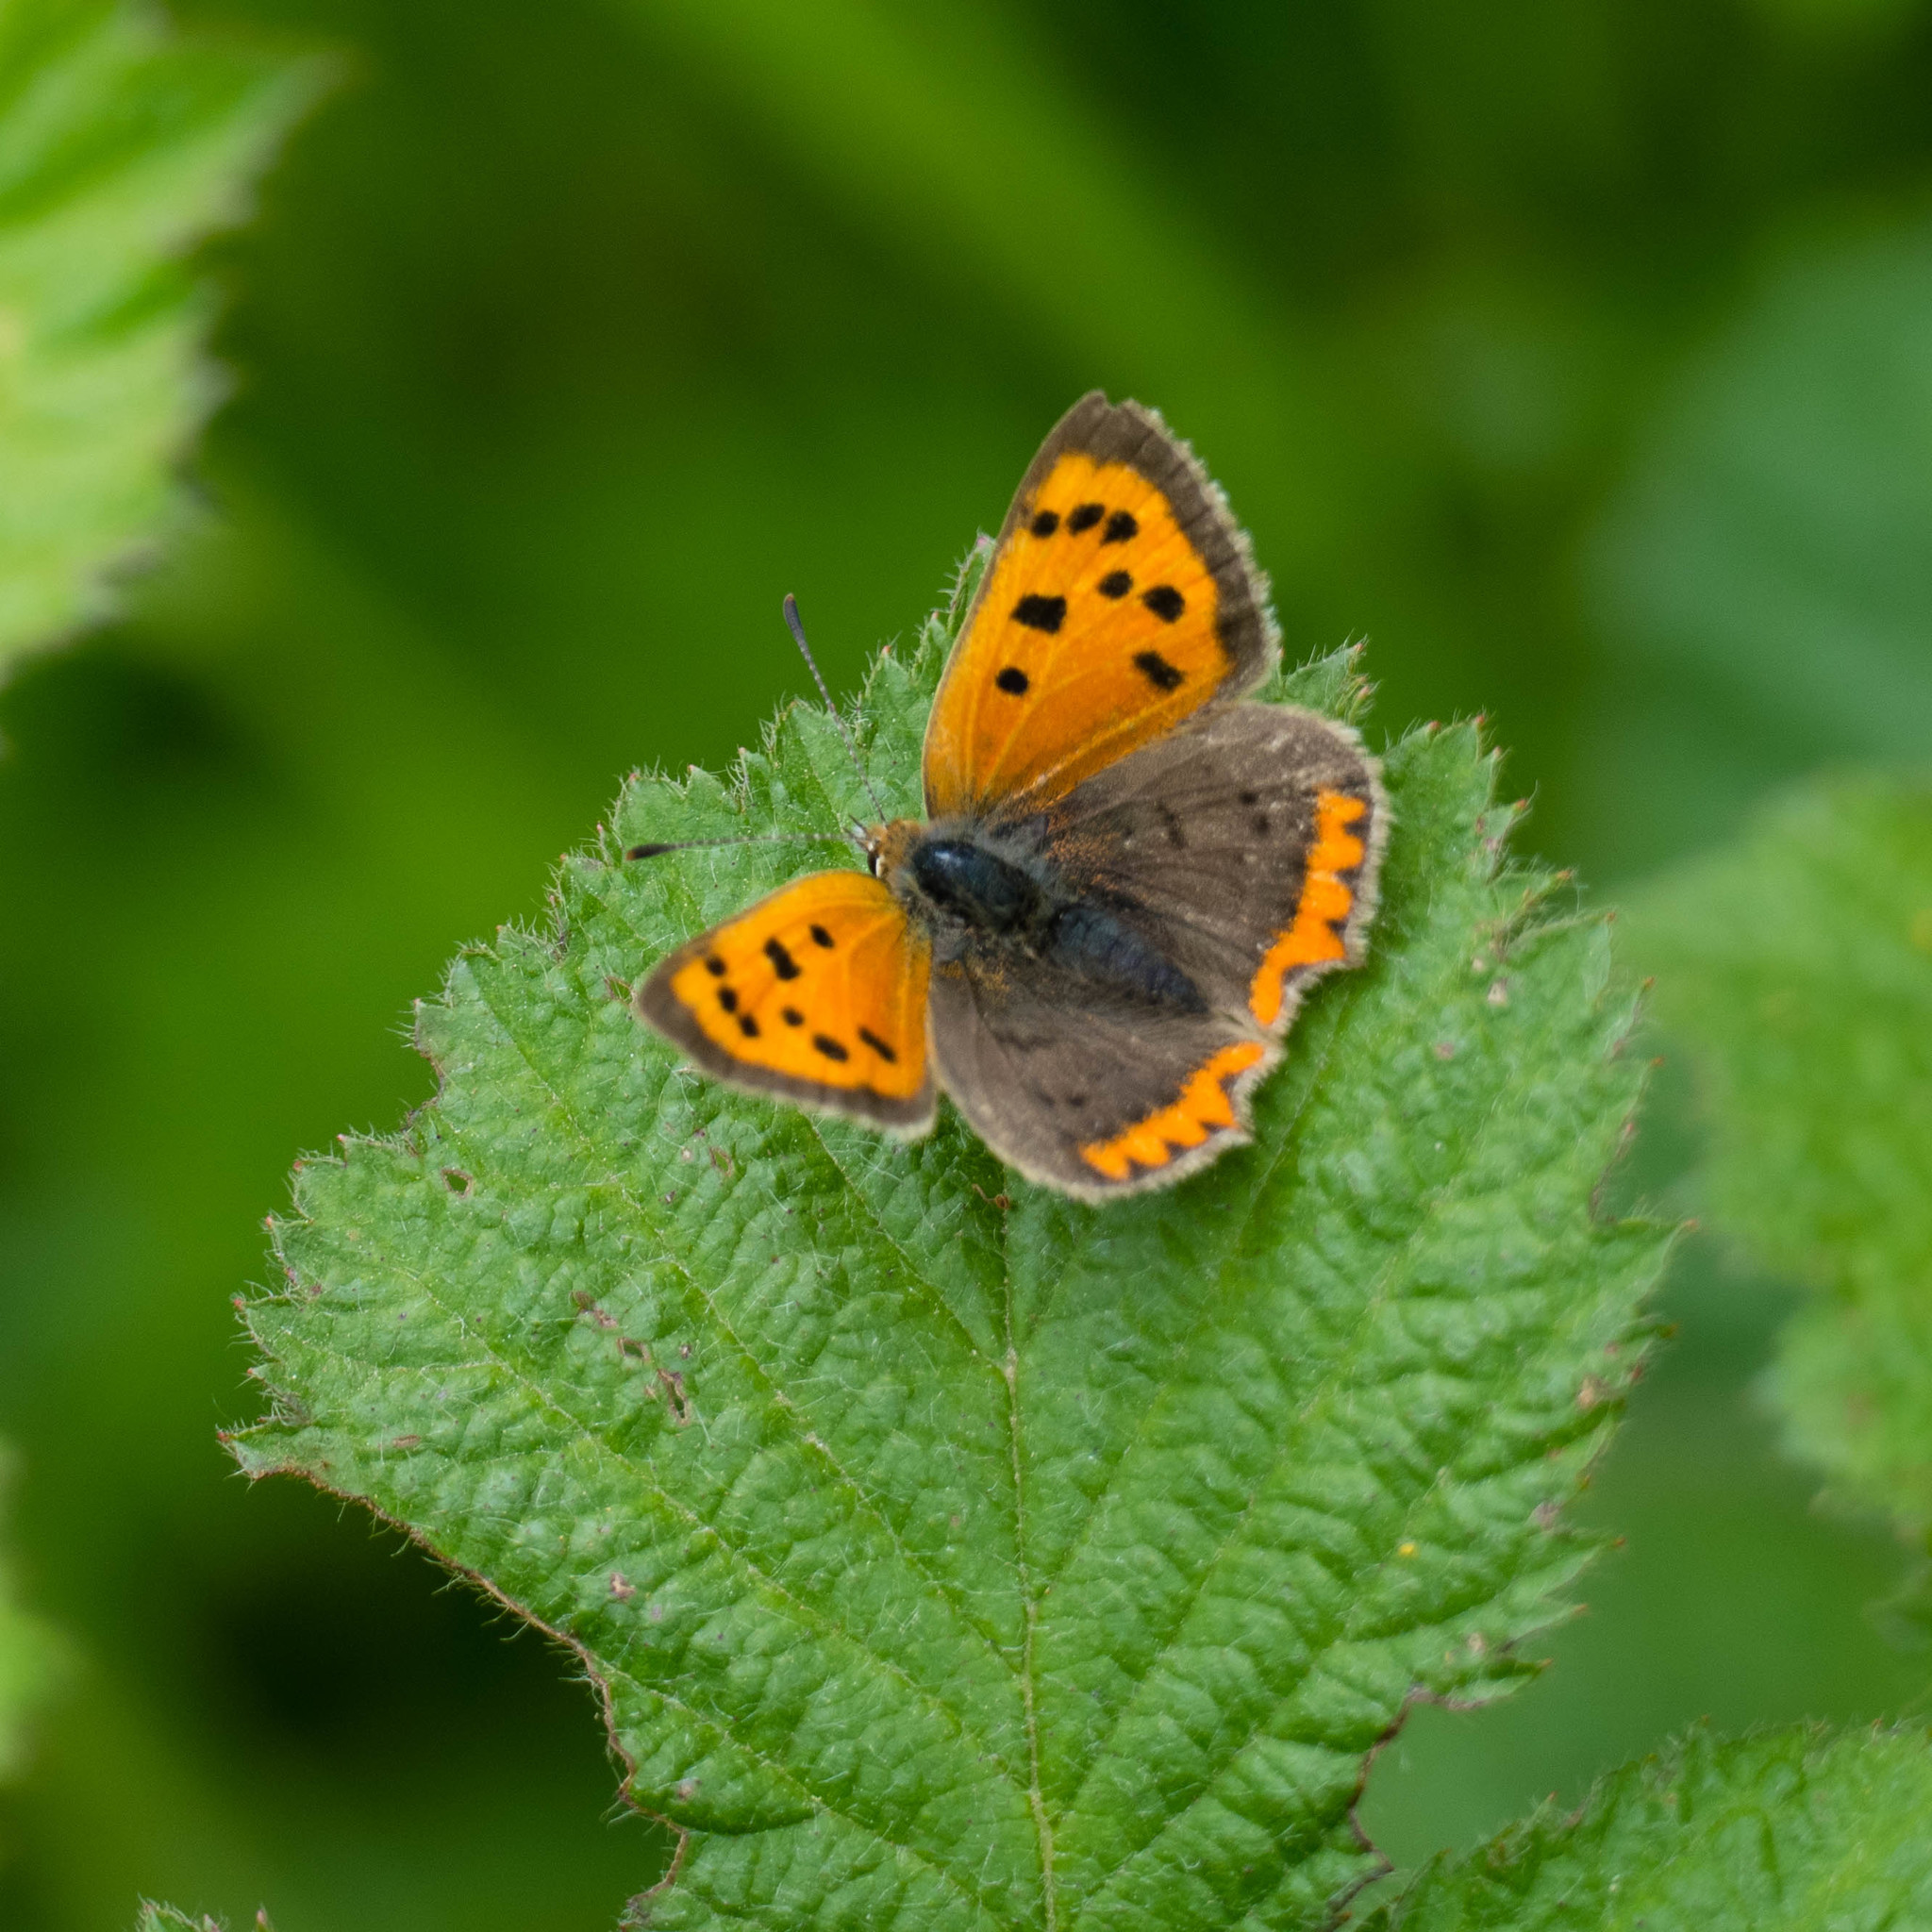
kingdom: Animalia
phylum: Arthropoda
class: Insecta
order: Lepidoptera
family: Lycaenidae
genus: Lycaena
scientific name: Lycaena phlaeas
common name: Small copper
